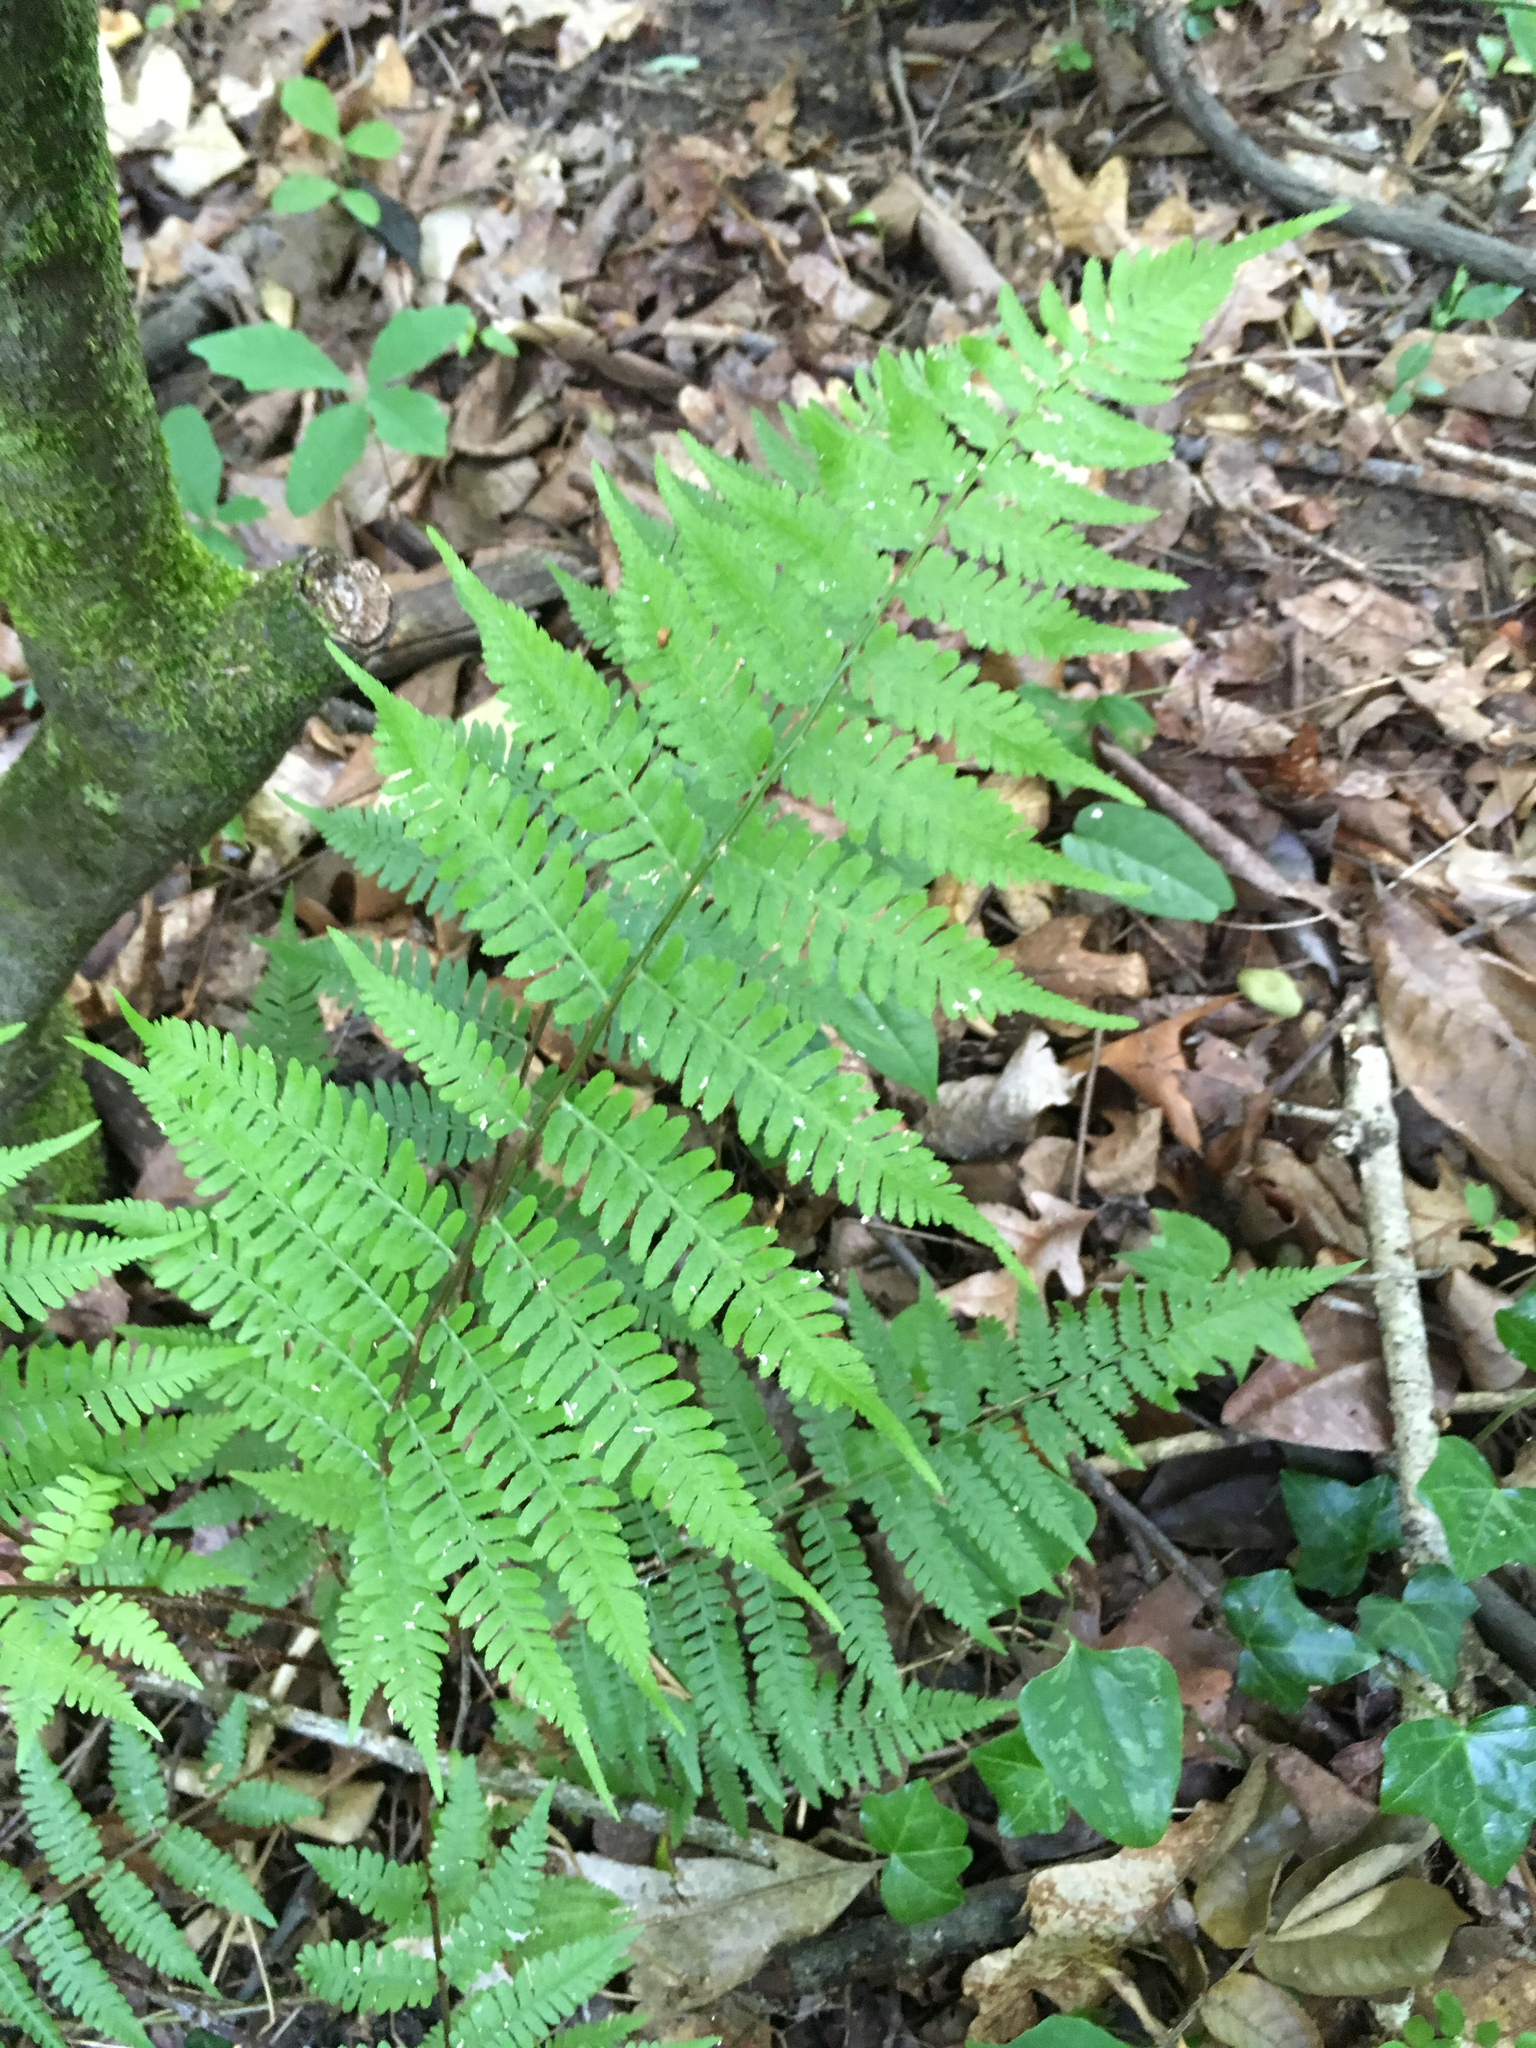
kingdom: Plantae
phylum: Tracheophyta
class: Polypodiopsida
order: Polypodiales
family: Athyriaceae
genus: Athyrium
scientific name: Athyrium asplenioides
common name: Southern lady fern
